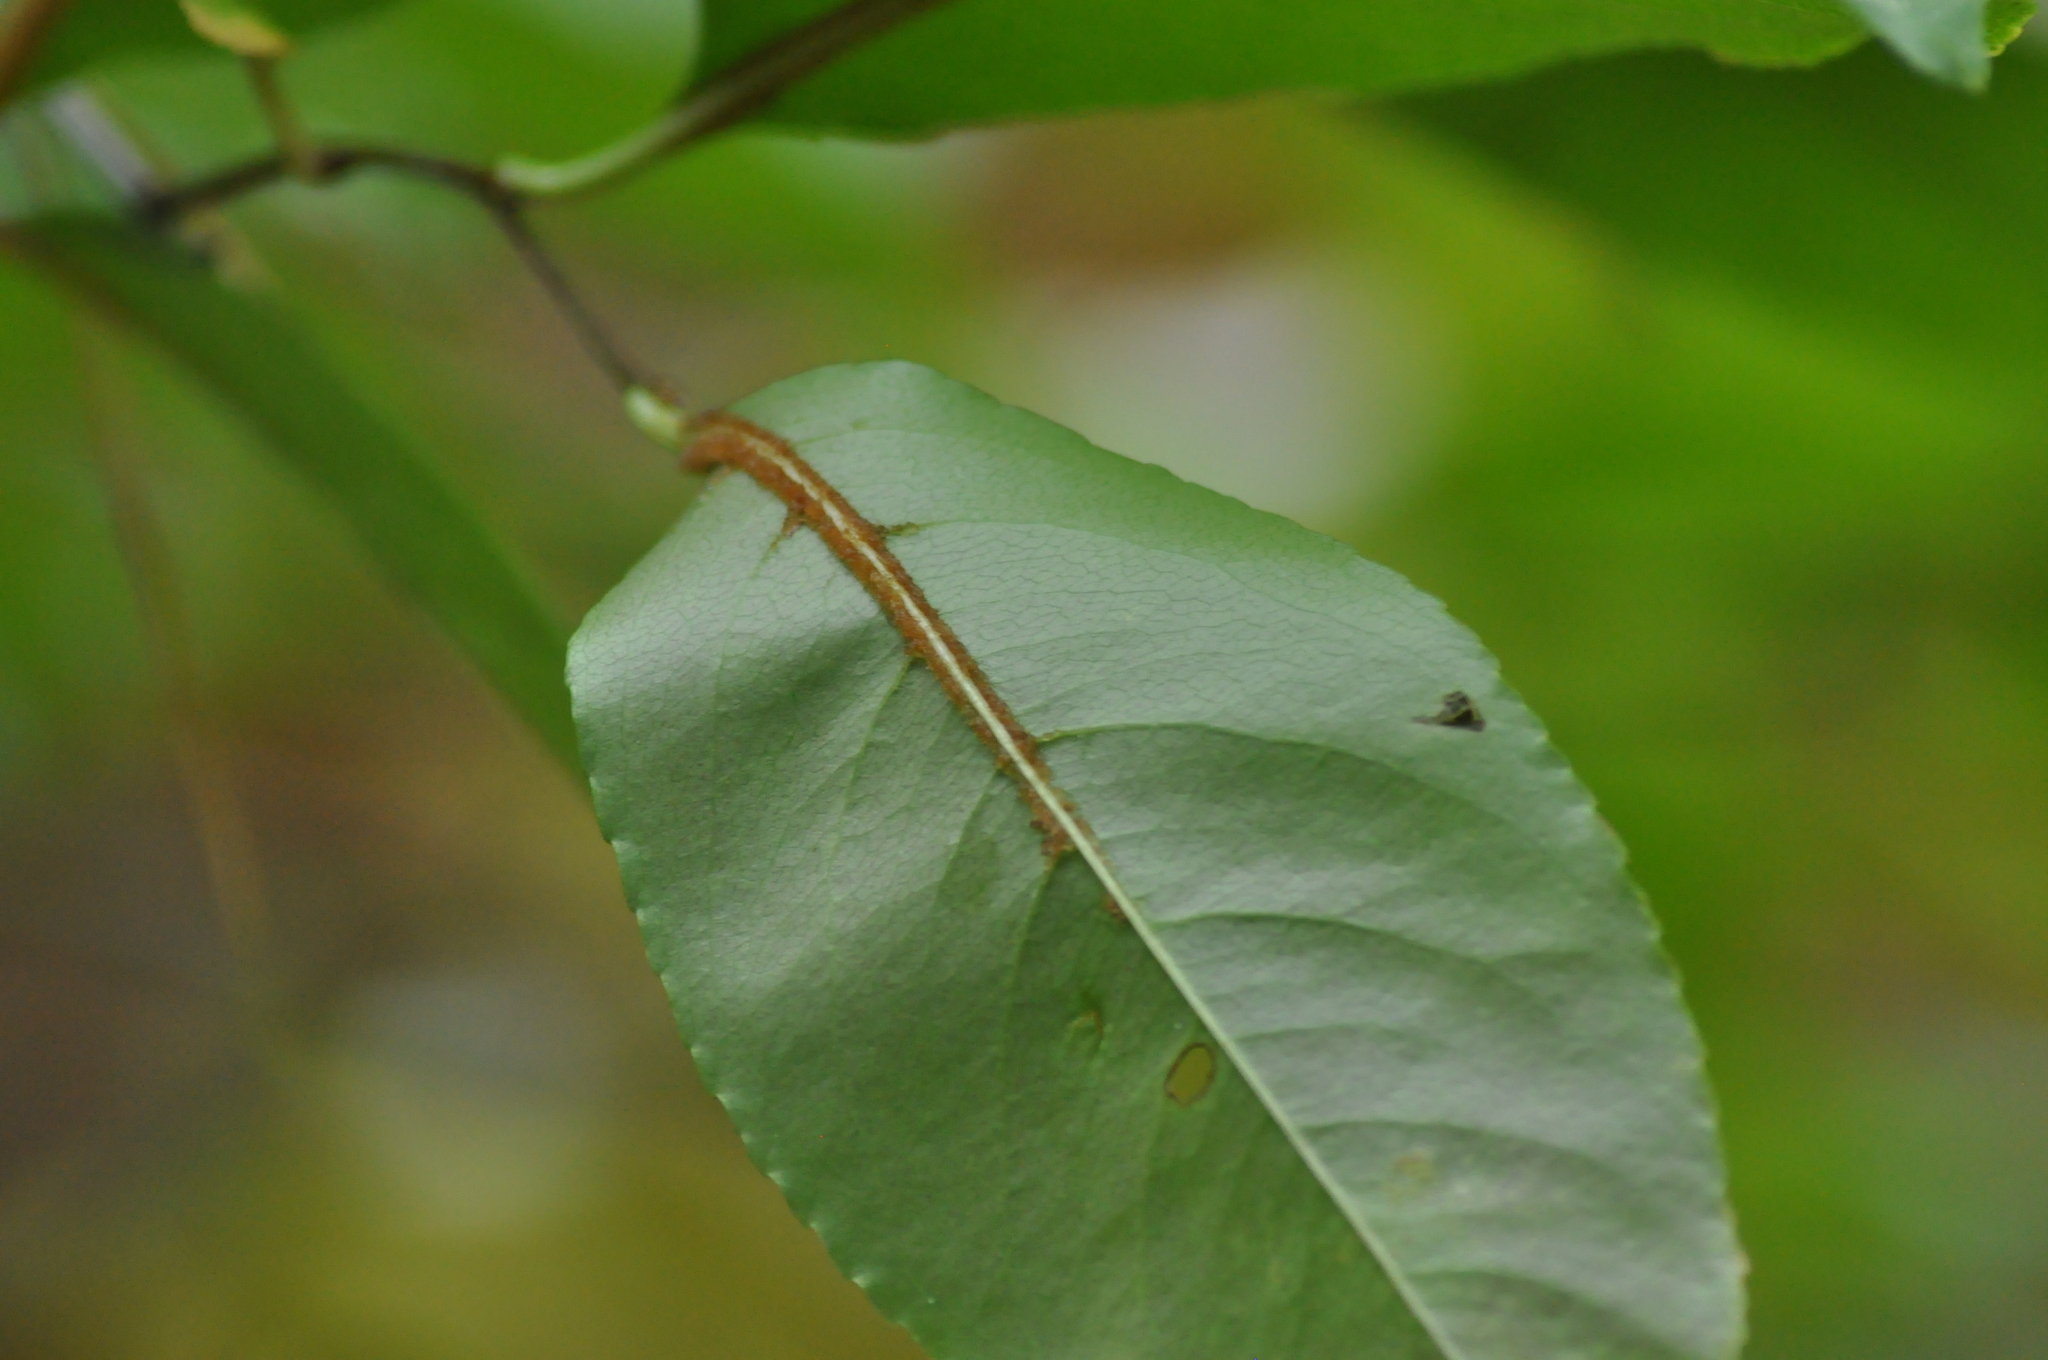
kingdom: Plantae
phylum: Tracheophyta
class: Magnoliopsida
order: Rosales
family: Rosaceae
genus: Prunus
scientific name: Prunus serotina
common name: Black cherry
